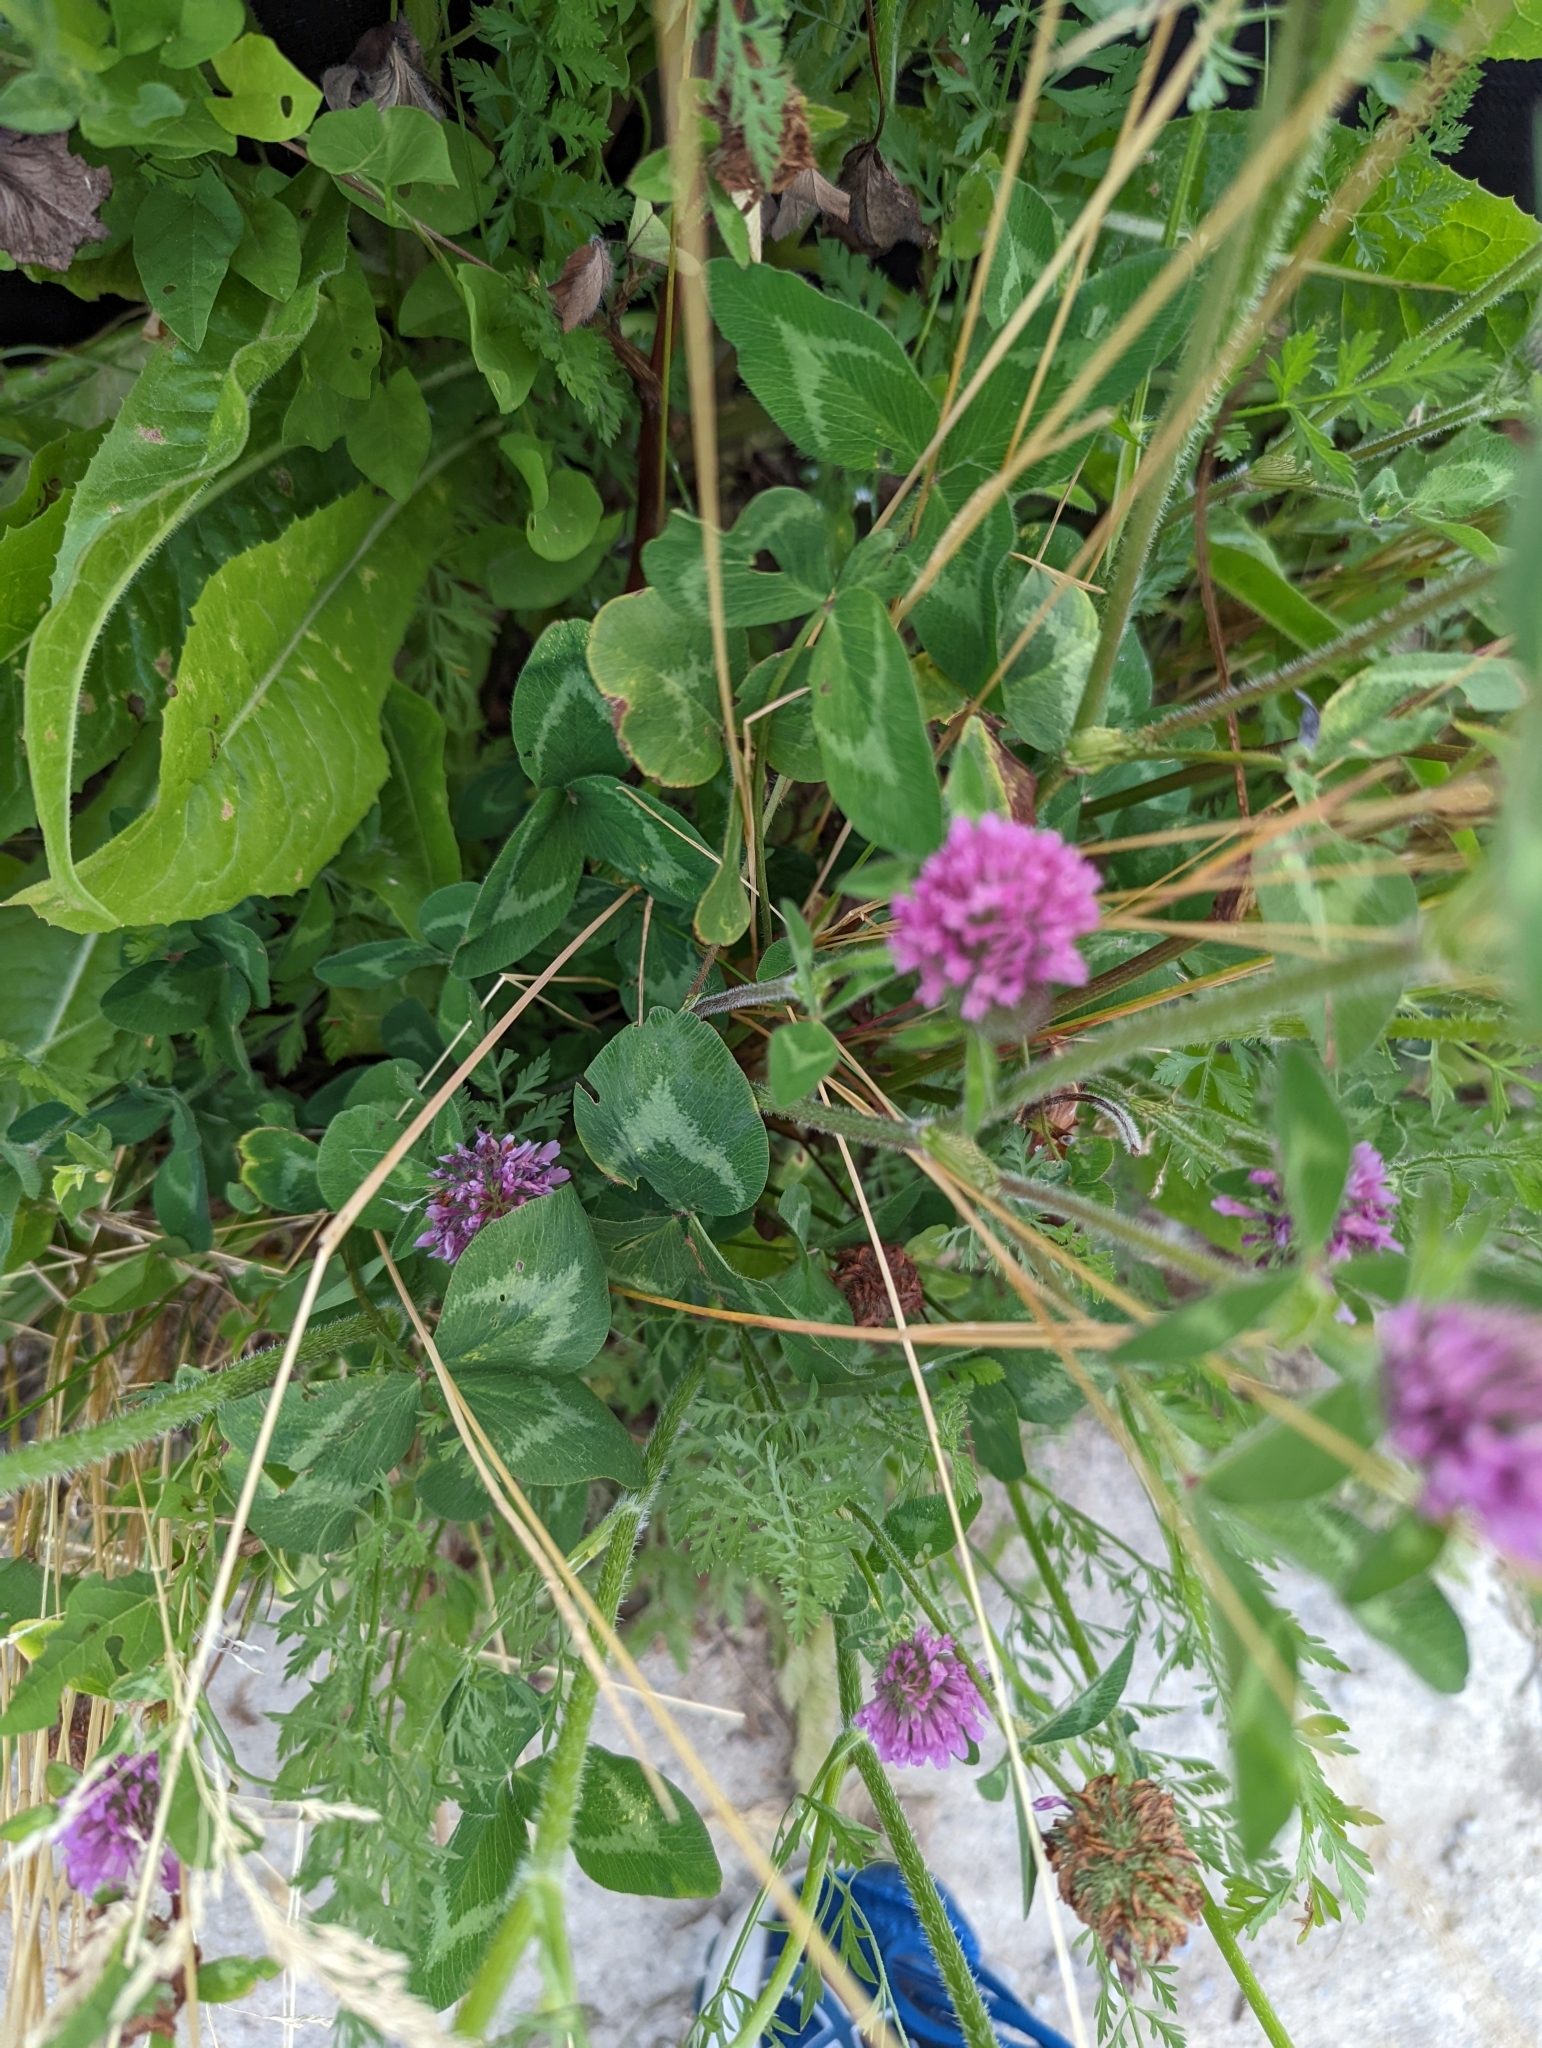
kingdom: Plantae
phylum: Tracheophyta
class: Magnoliopsida
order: Fabales
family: Fabaceae
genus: Trifolium
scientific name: Trifolium pratense
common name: Red clover
